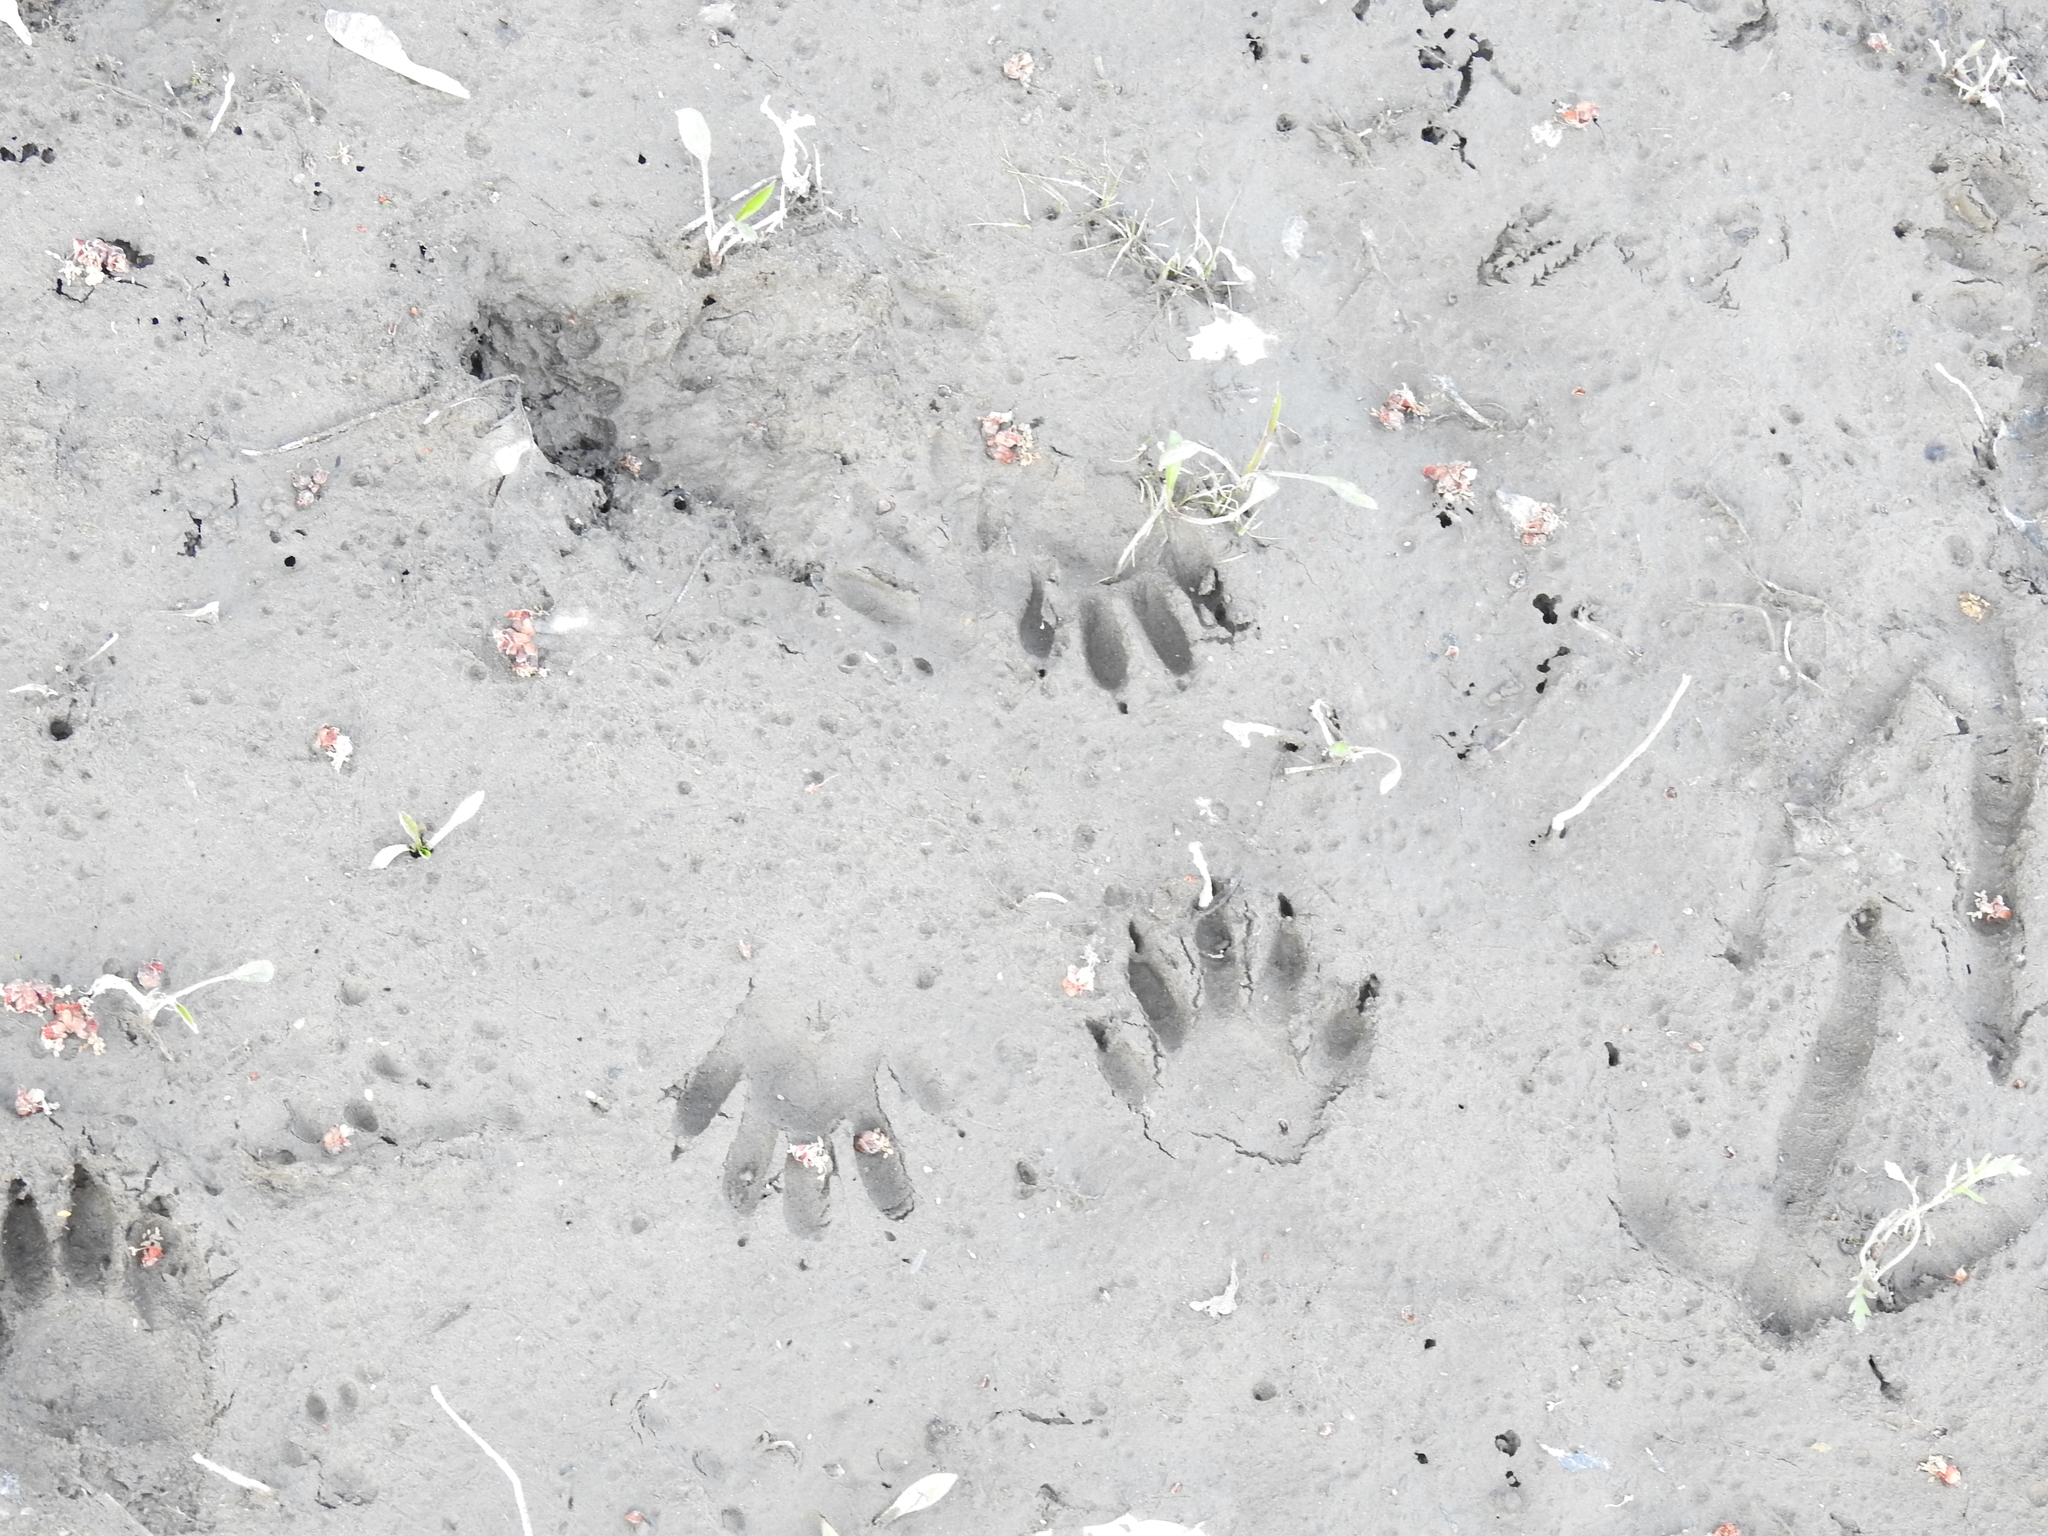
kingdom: Animalia
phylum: Chordata
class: Mammalia
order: Carnivora
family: Procyonidae
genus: Procyon
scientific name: Procyon lotor
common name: Raccoon
